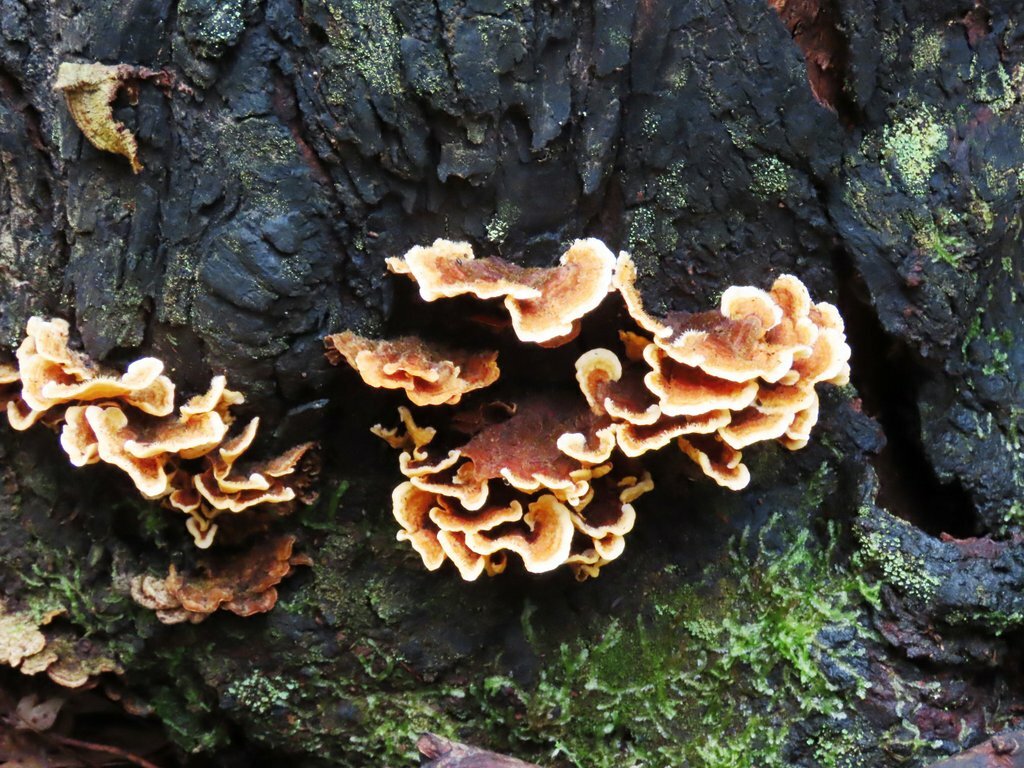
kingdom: Fungi
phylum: Basidiomycota
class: Agaricomycetes
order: Russulales
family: Stereaceae
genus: Stereum
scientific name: Stereum hirsutum
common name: Hairy curtain crust
